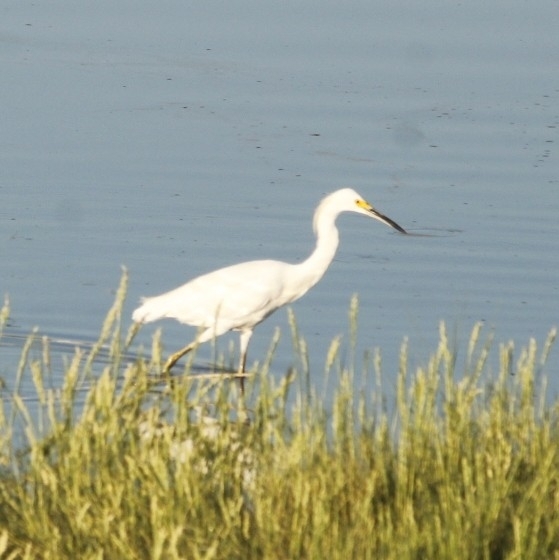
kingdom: Animalia
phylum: Chordata
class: Aves
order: Pelecaniformes
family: Ardeidae
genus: Egretta
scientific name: Egretta thula
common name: Snowy egret
